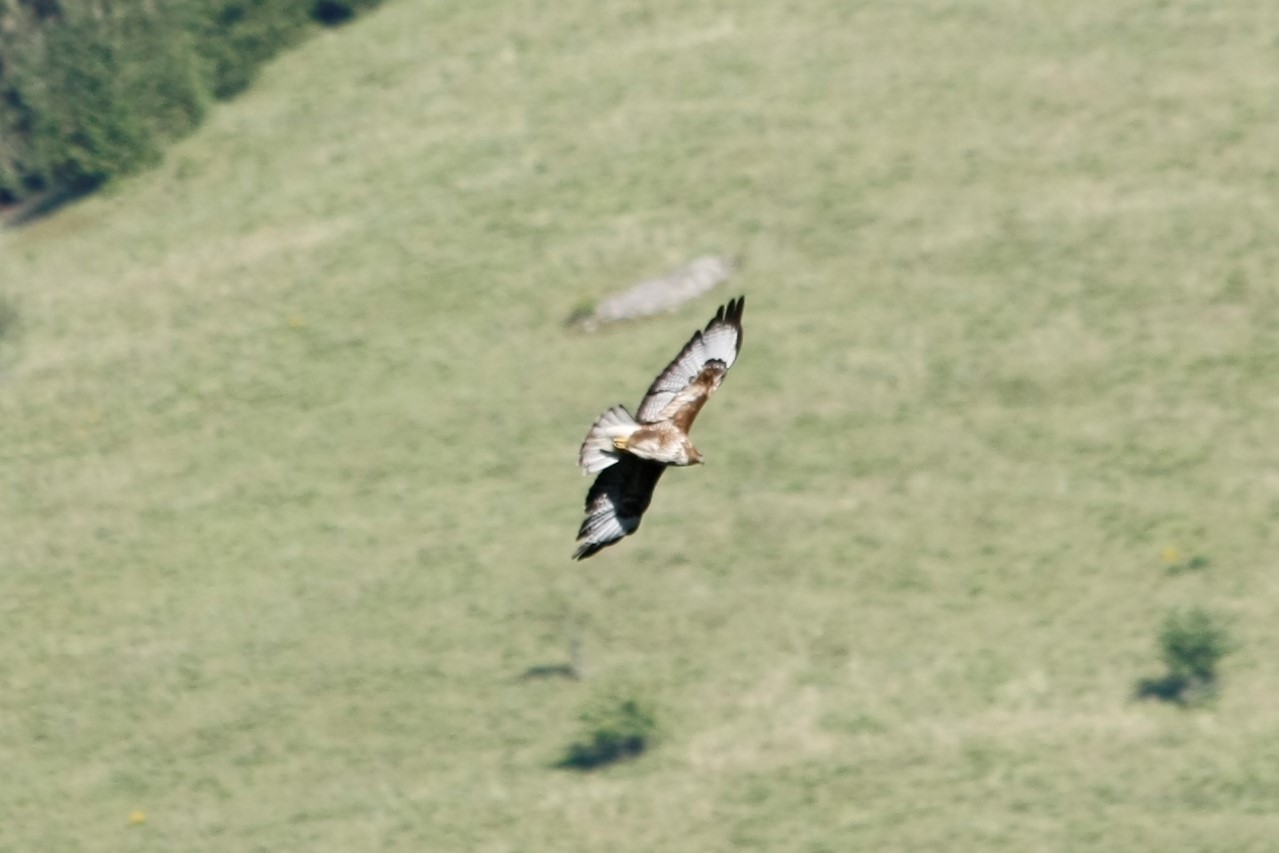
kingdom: Animalia
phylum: Chordata
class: Aves
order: Accipitriformes
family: Accipitridae
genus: Buteo
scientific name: Buteo buteo
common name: Common buzzard
